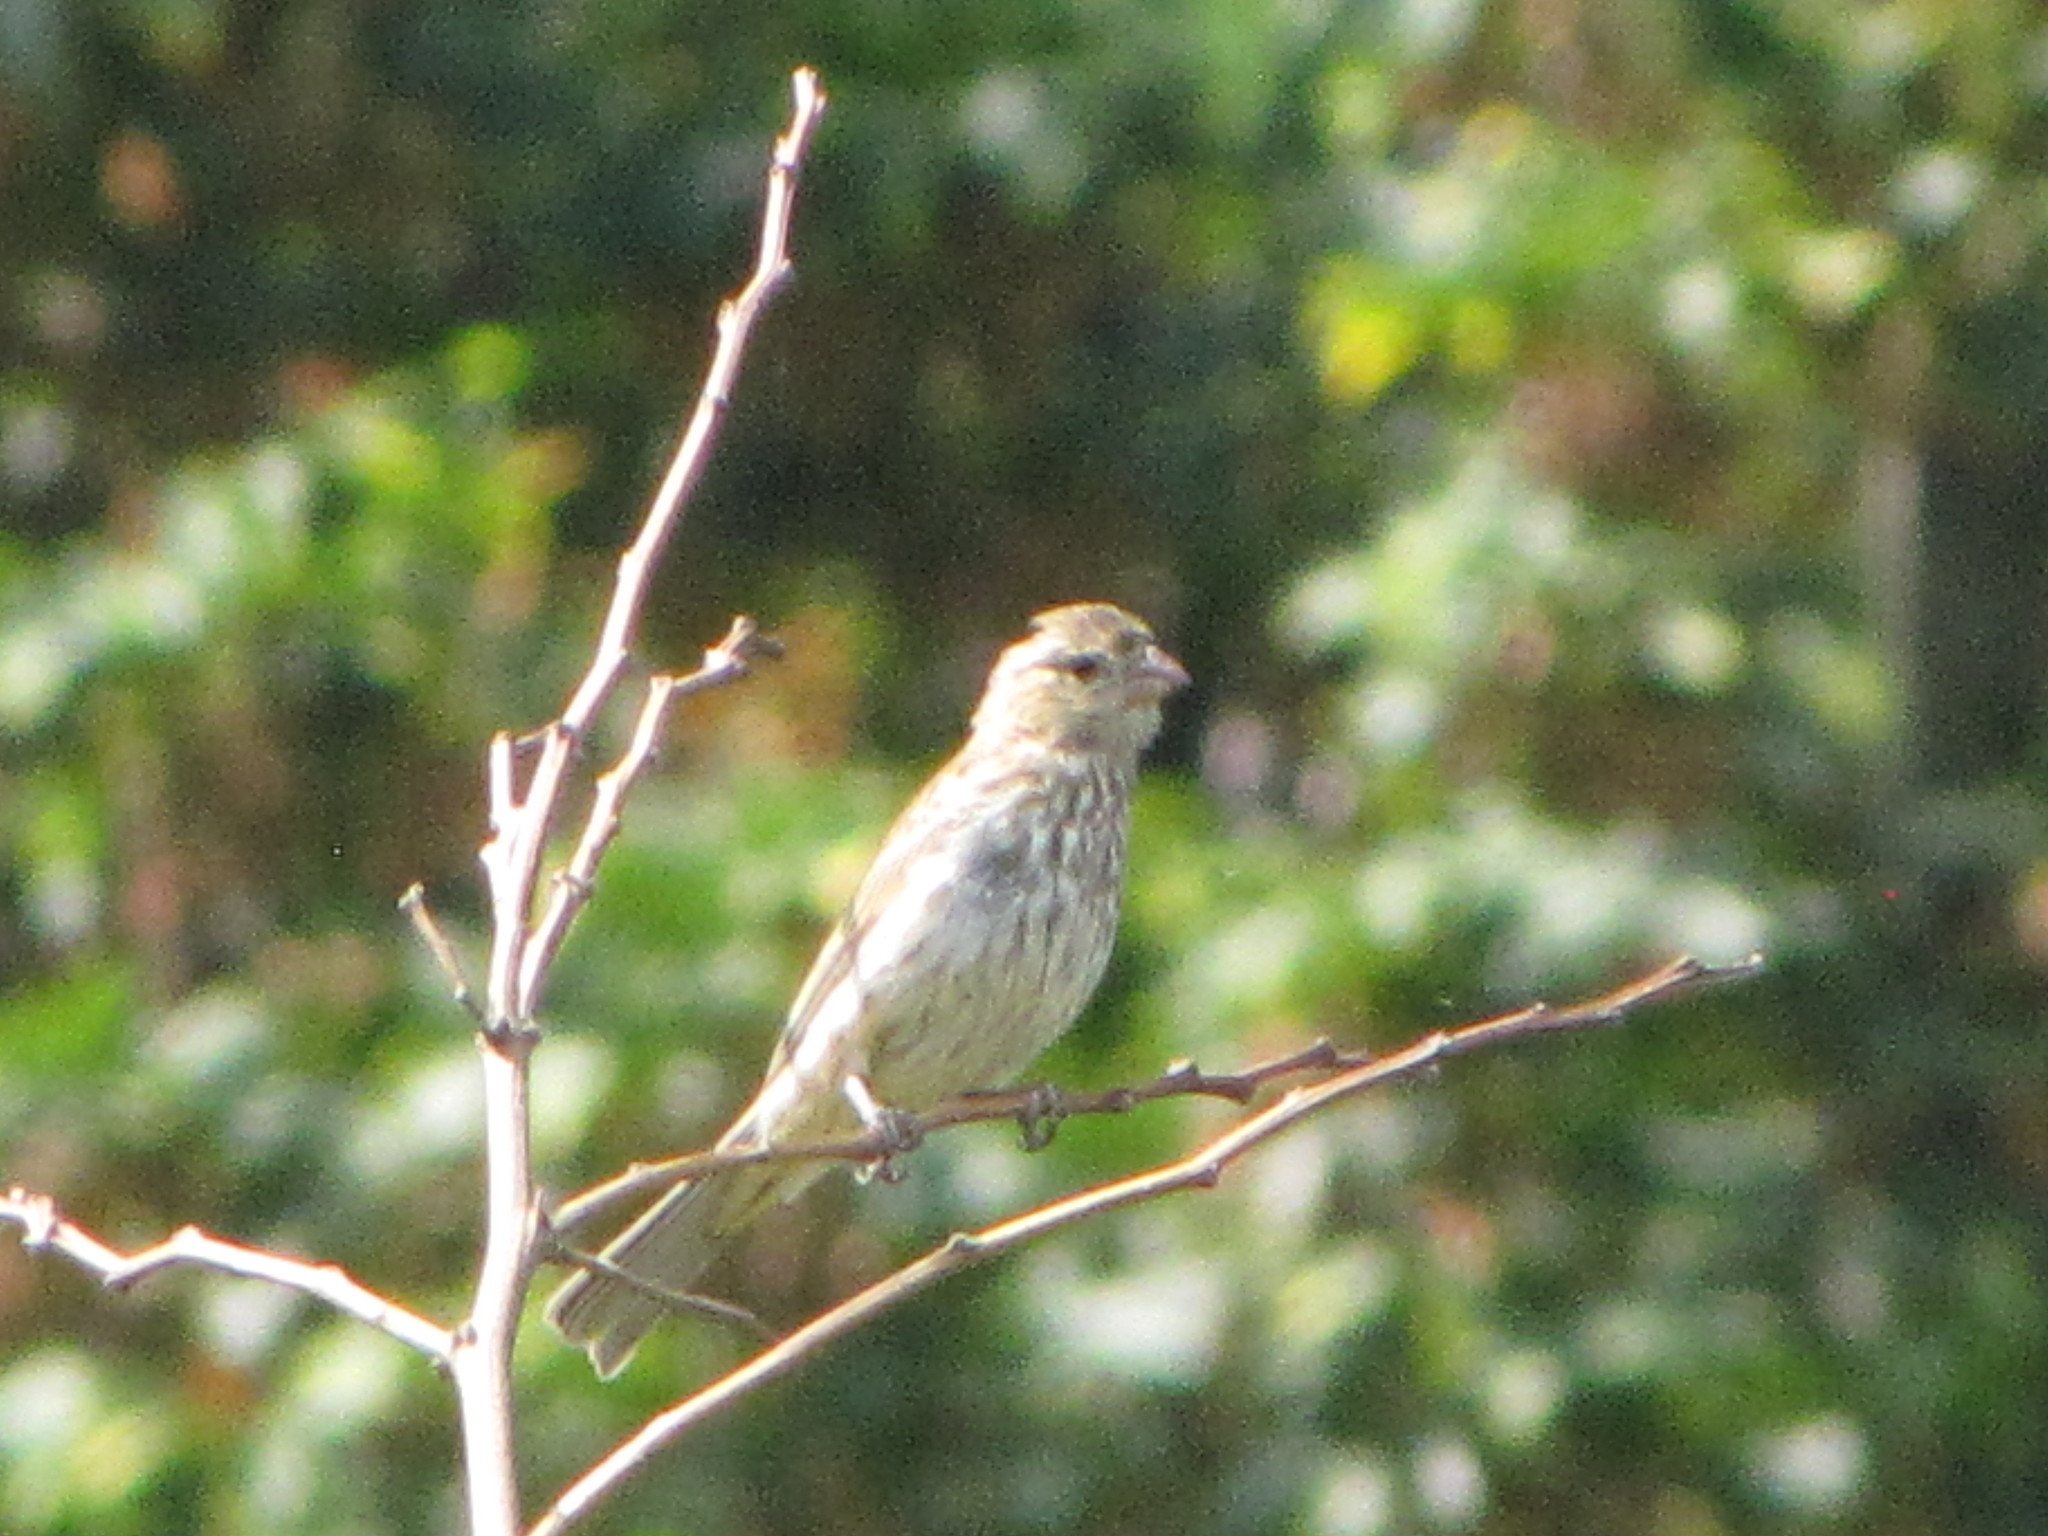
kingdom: Animalia
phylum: Chordata
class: Aves
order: Passeriformes
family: Fringillidae
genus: Haemorhous
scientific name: Haemorhous mexicanus
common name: House finch
